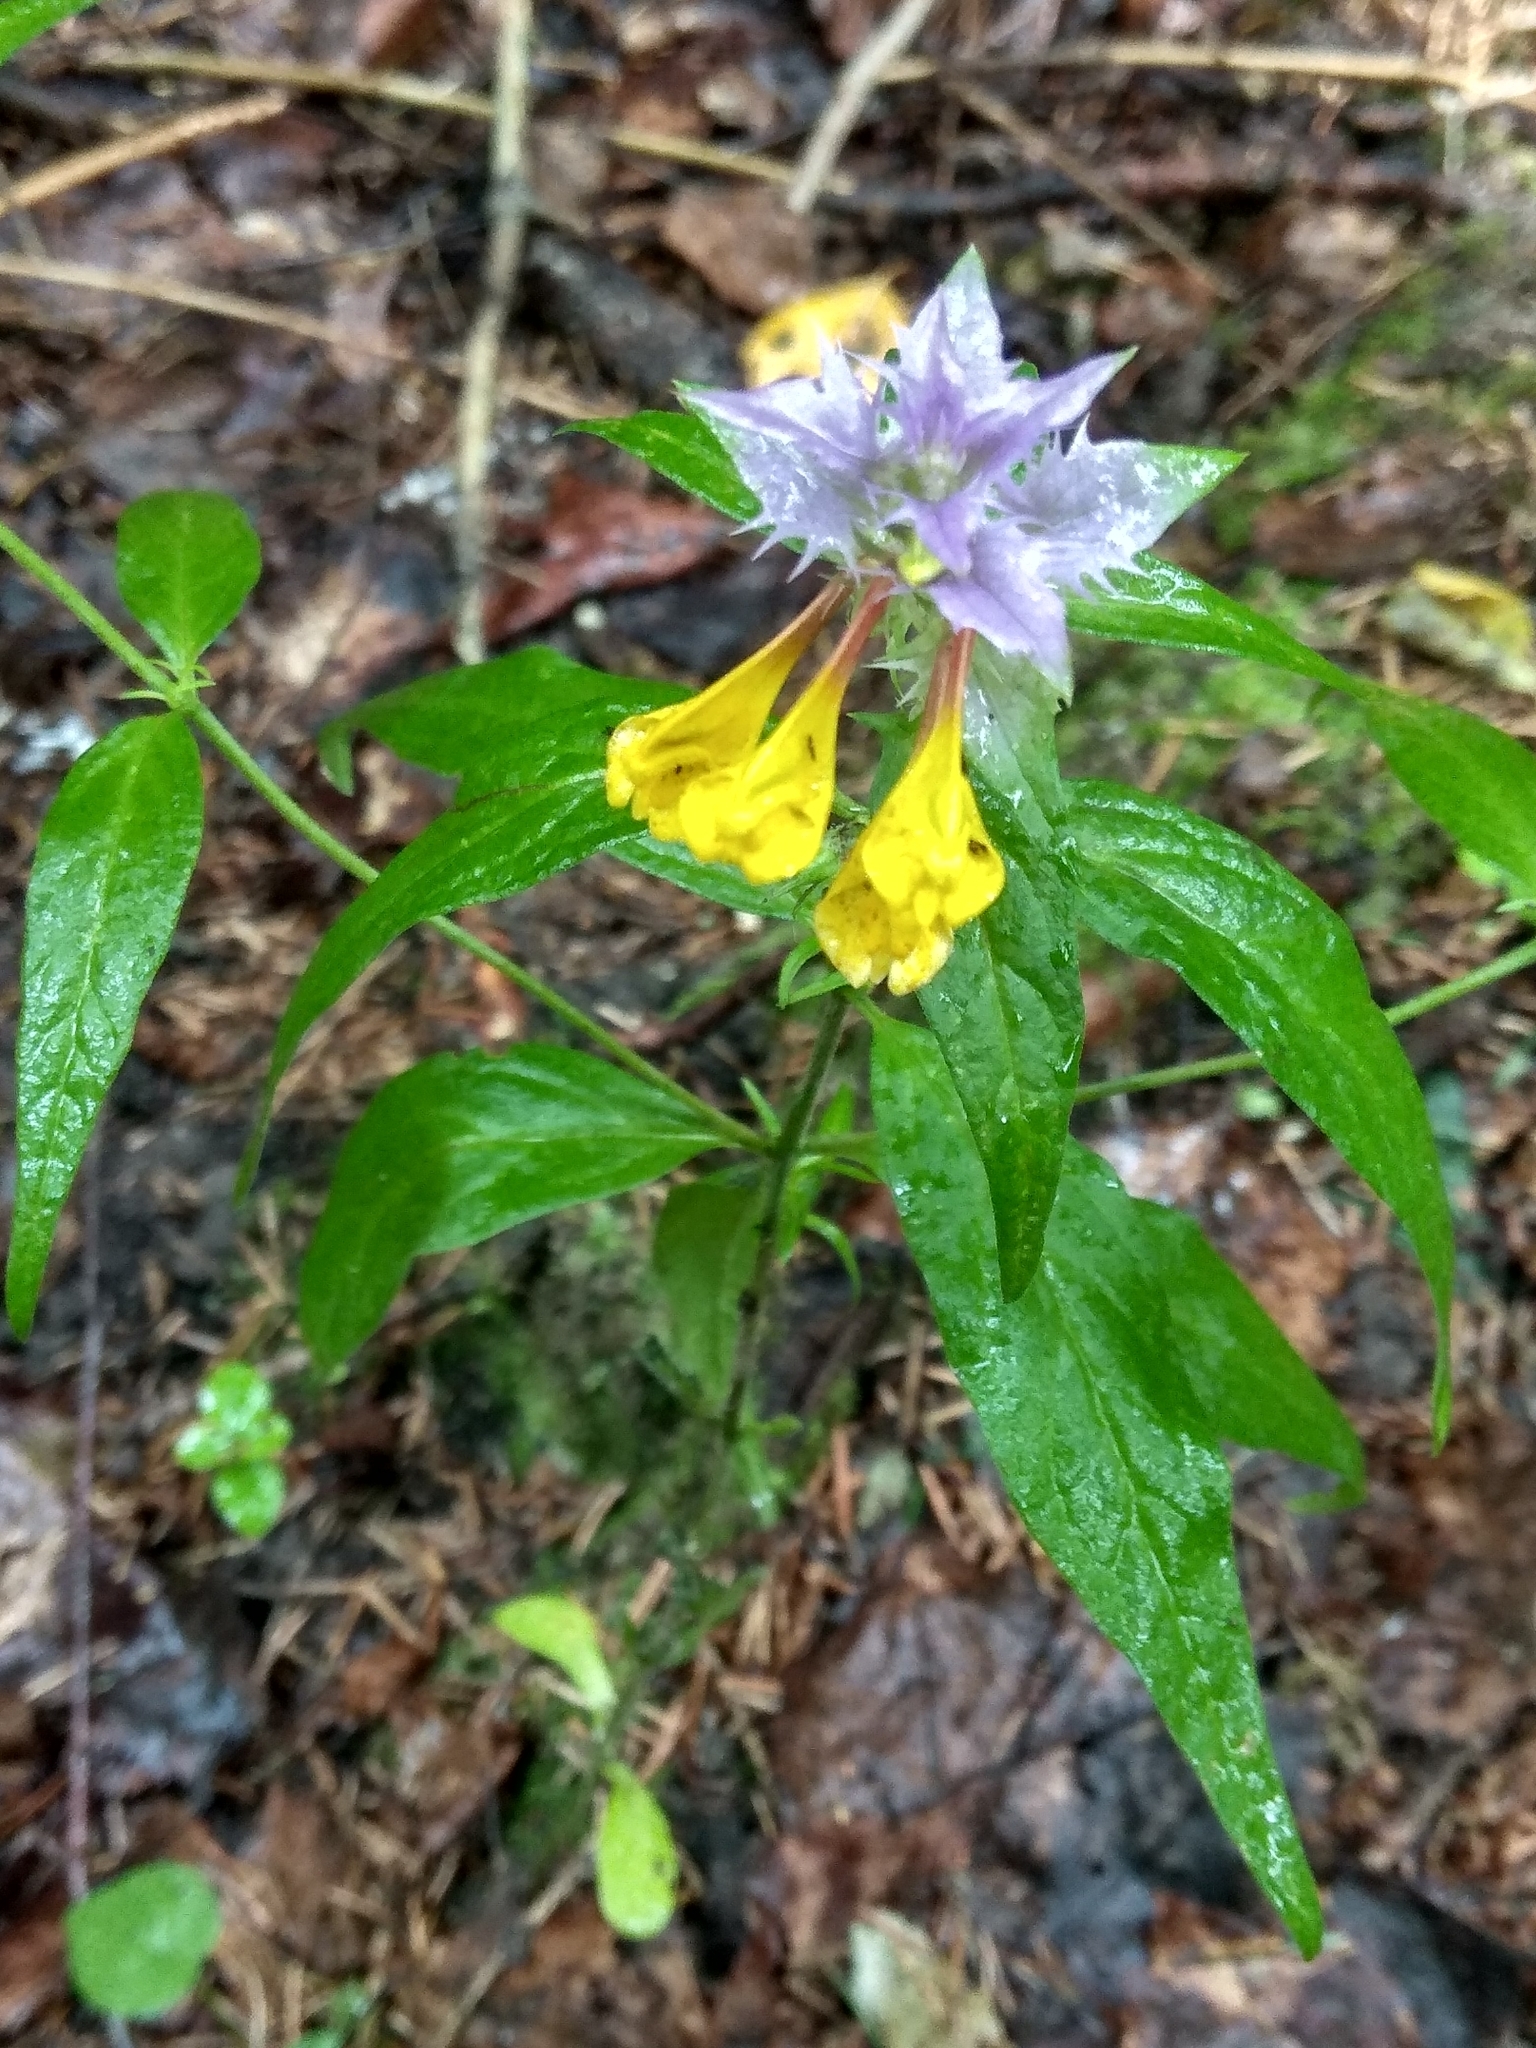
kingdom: Plantae
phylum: Tracheophyta
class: Magnoliopsida
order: Lamiales
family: Orobanchaceae
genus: Melampyrum
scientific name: Melampyrum nemorosum
